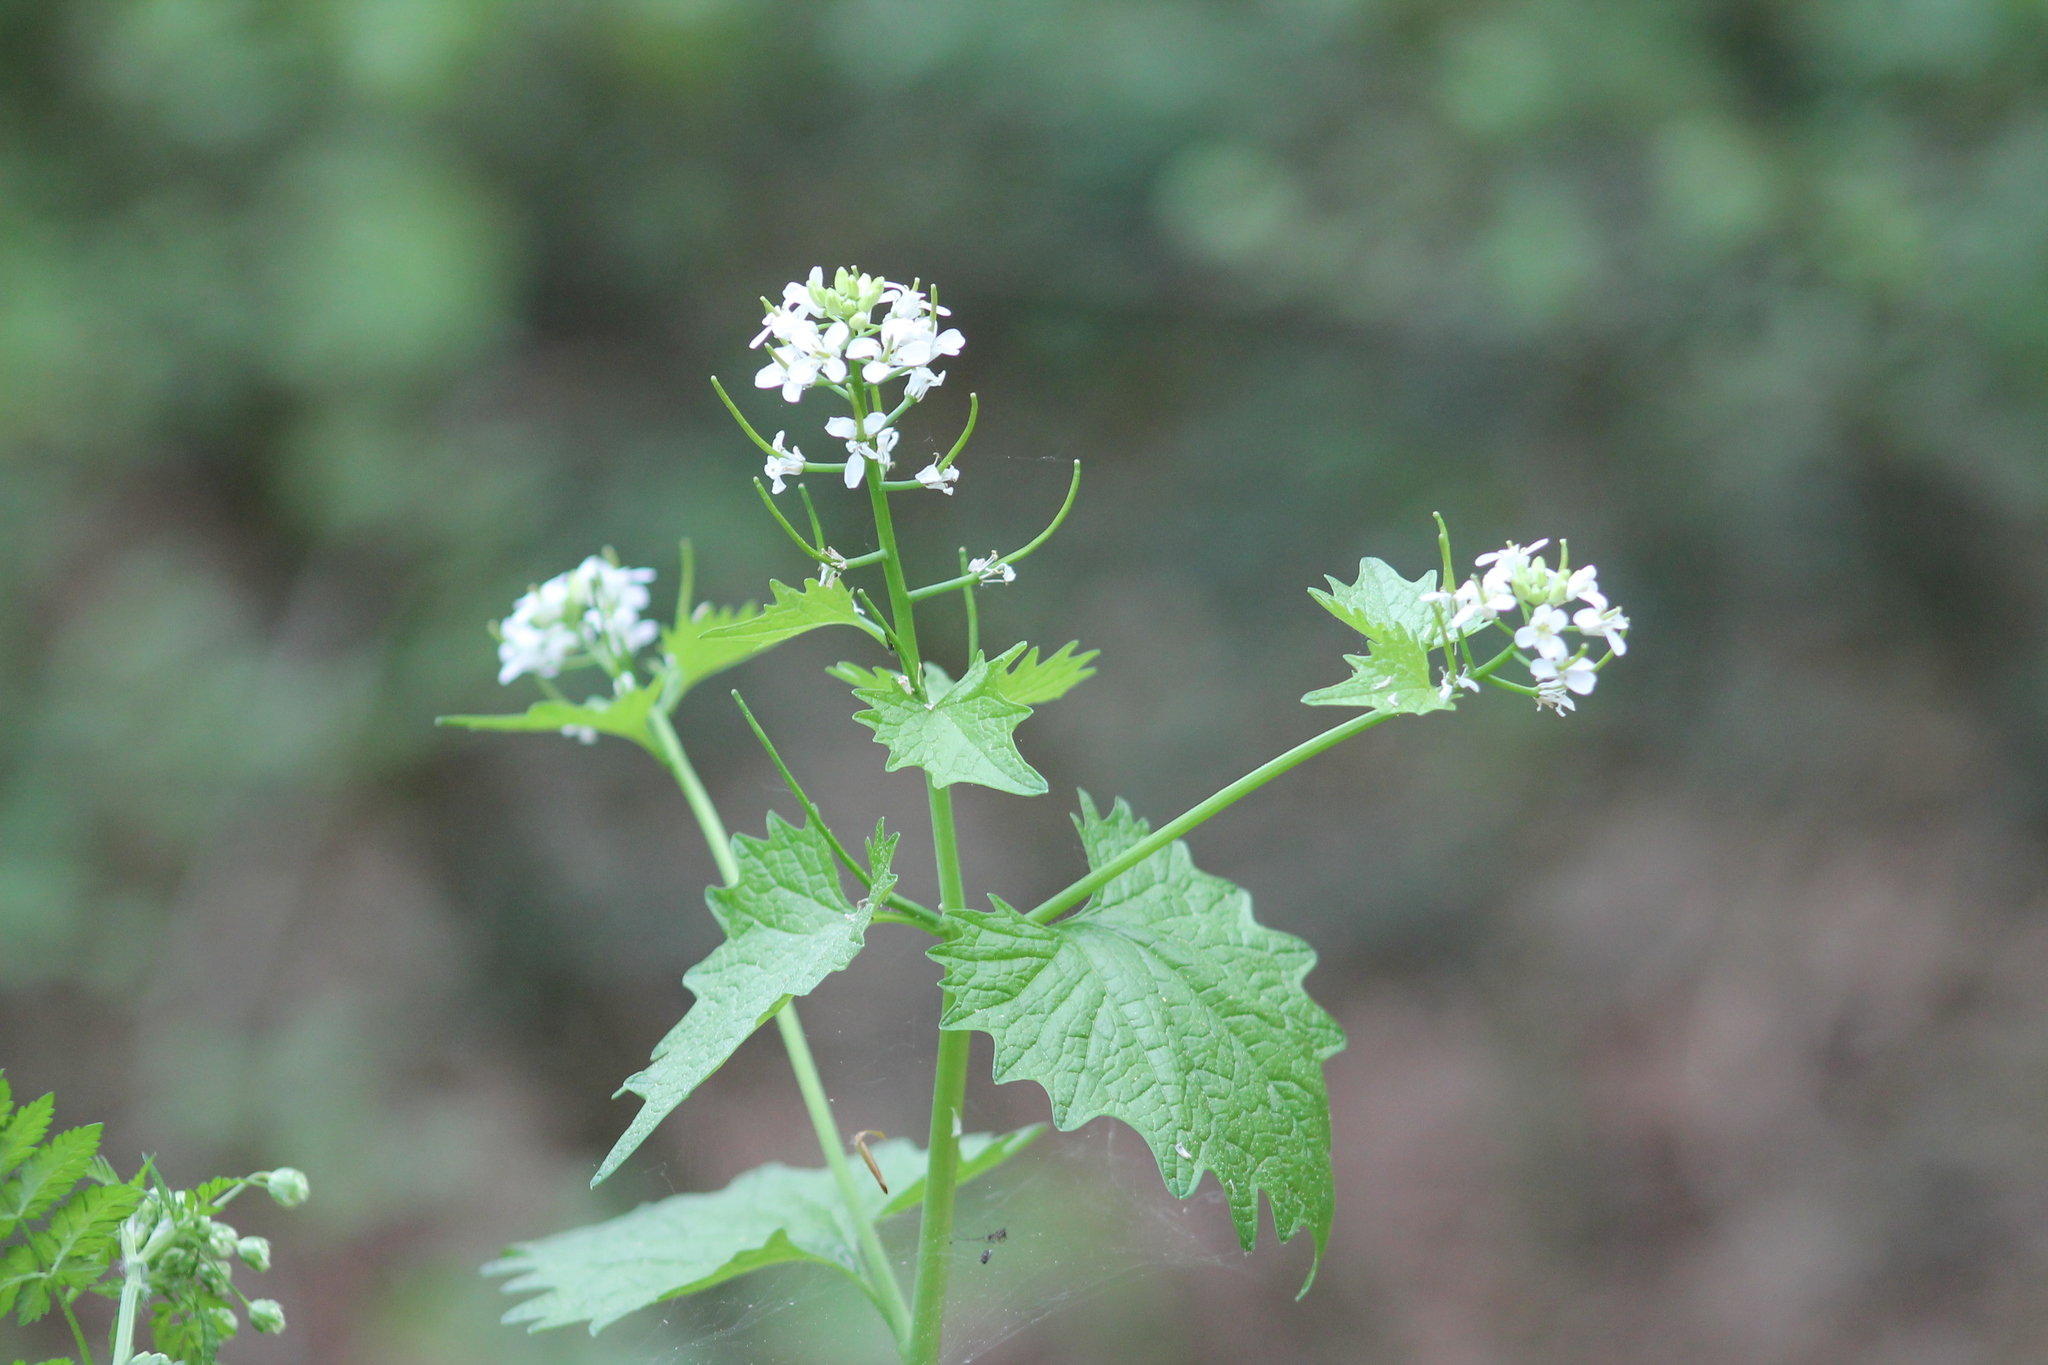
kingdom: Plantae
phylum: Tracheophyta
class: Magnoliopsida
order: Brassicales
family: Brassicaceae
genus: Alliaria
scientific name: Alliaria petiolata
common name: Garlic mustard
